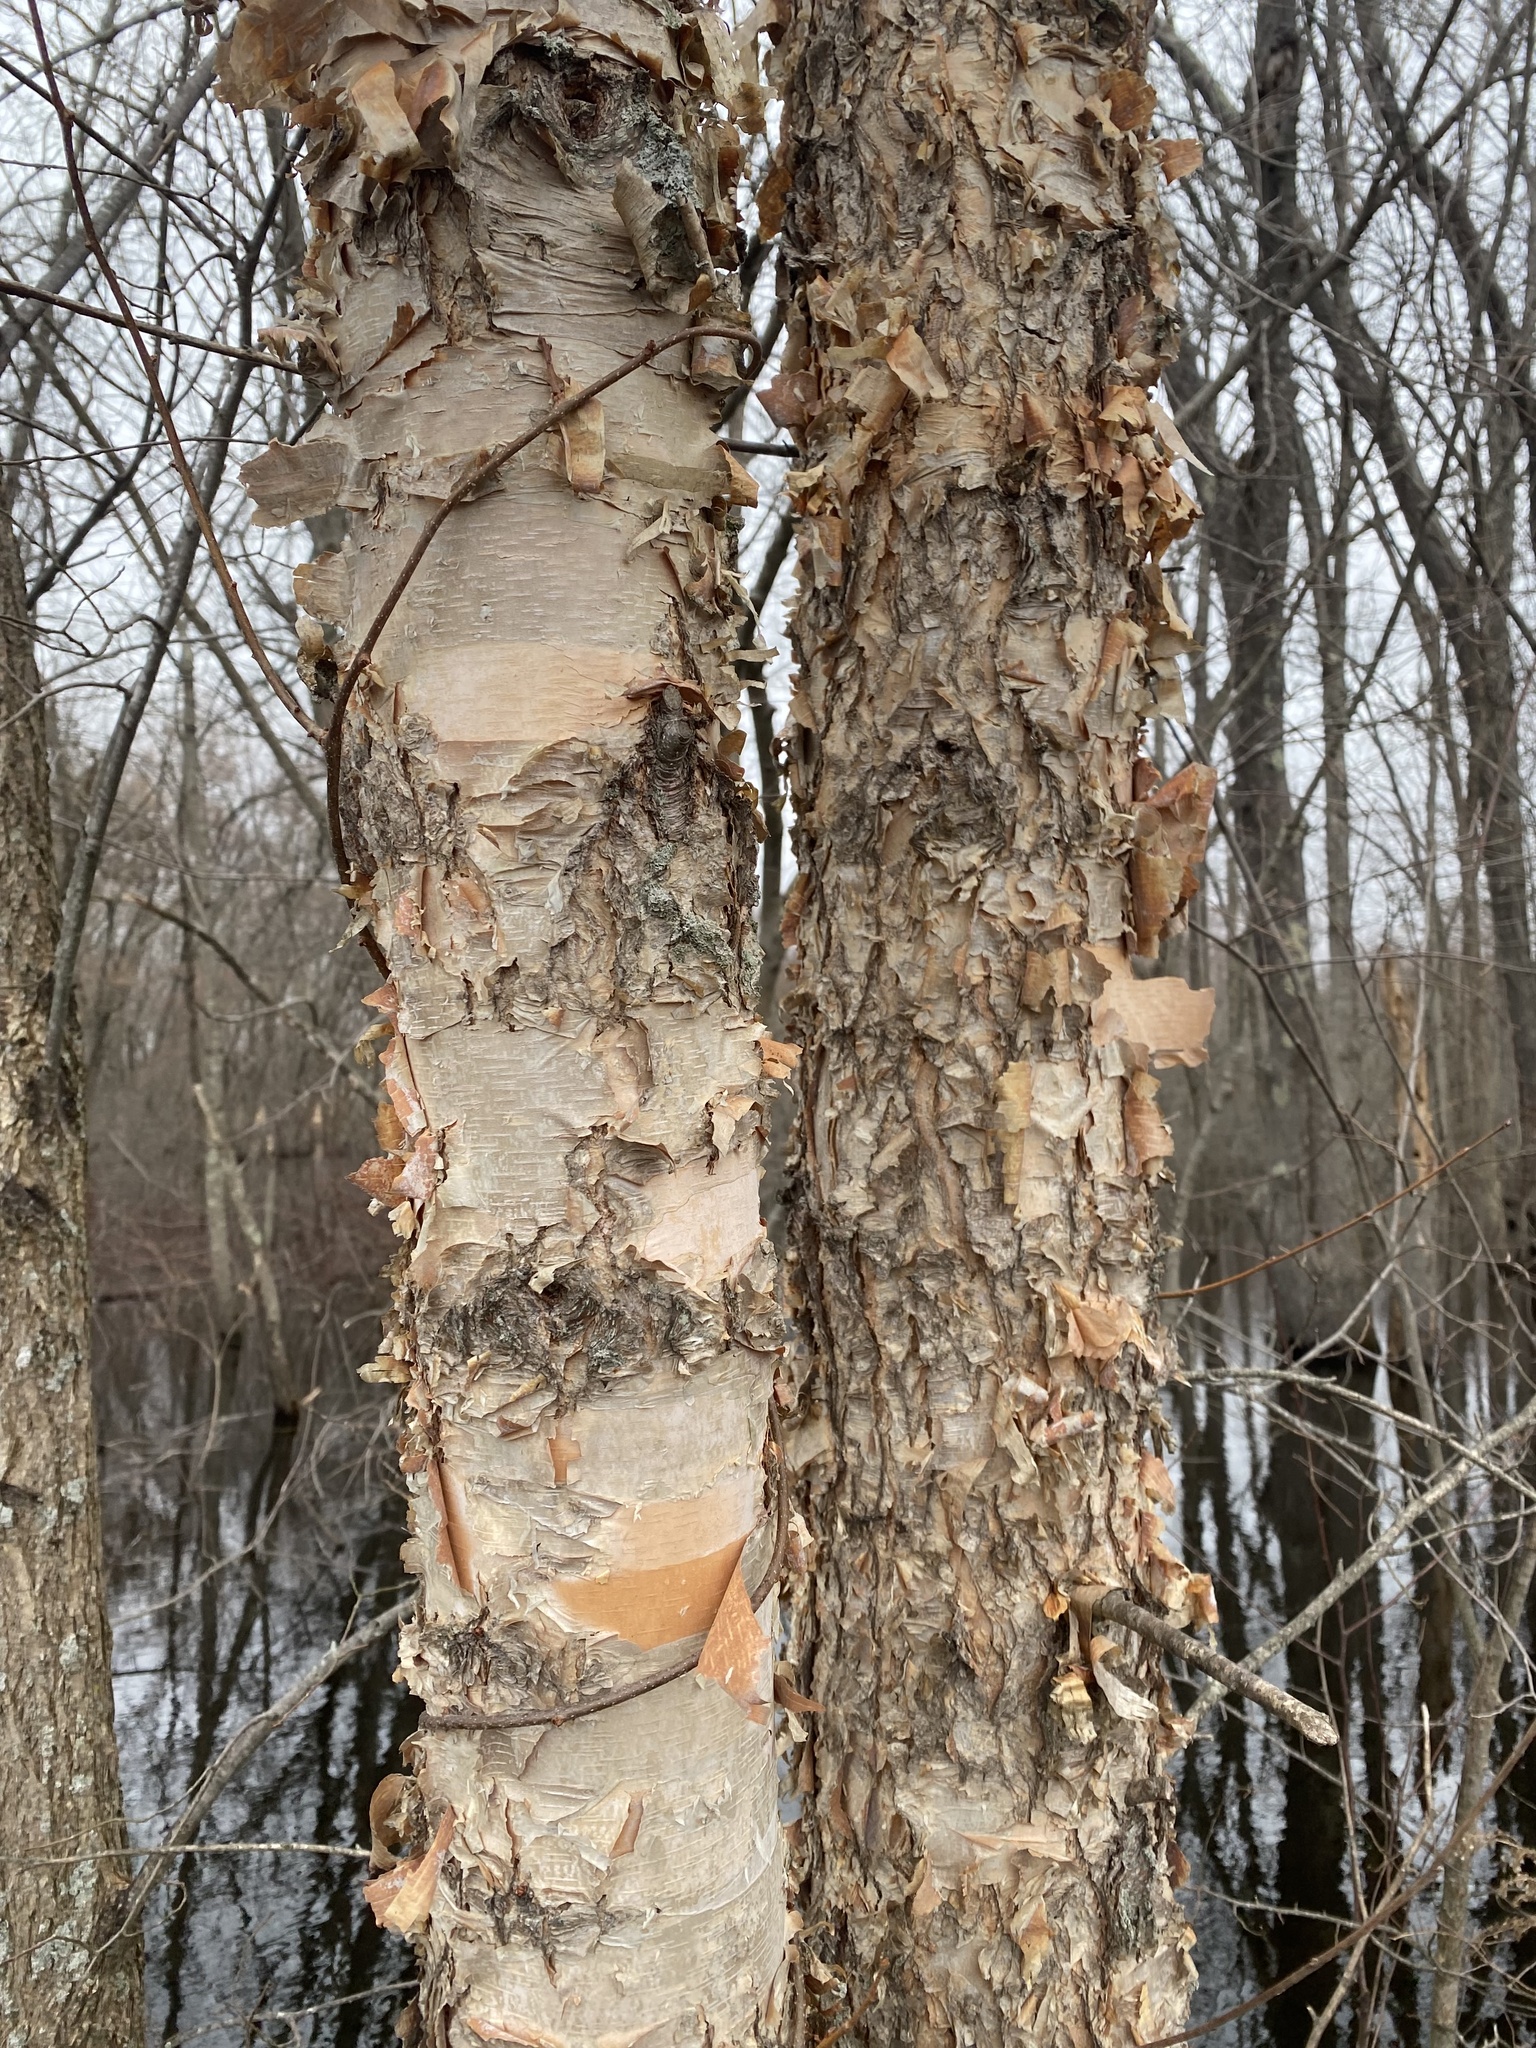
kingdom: Plantae
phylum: Tracheophyta
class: Magnoliopsida
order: Fagales
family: Betulaceae
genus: Betula
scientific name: Betula nigra
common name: Black birch
